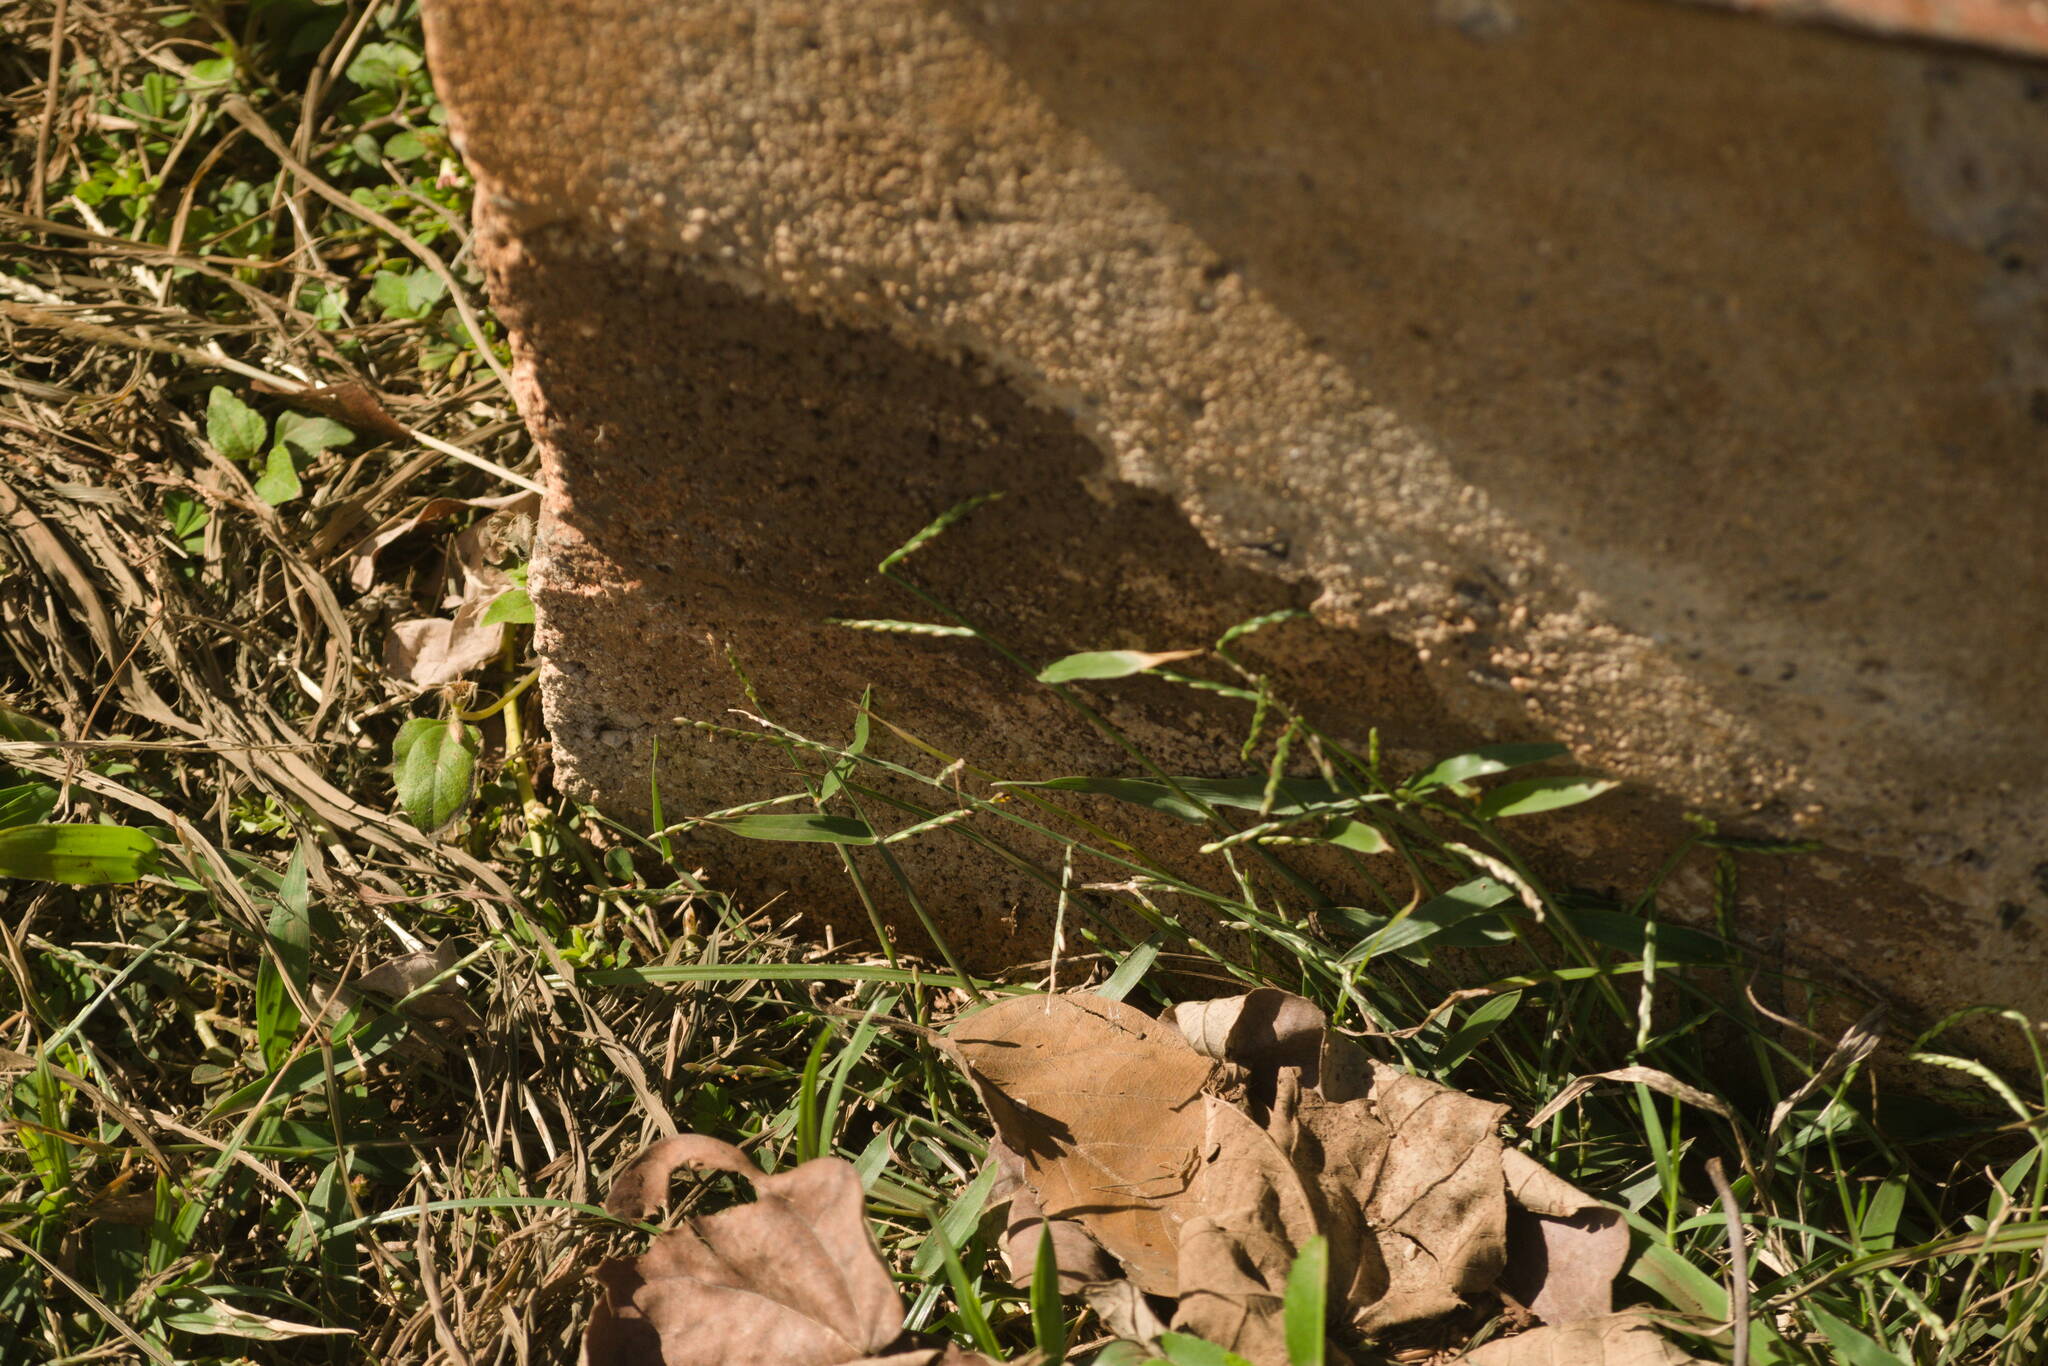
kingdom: Plantae
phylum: Tracheophyta
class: Liliopsida
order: Poales
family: Poaceae
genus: Urochloa
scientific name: Urochloa distachyos
